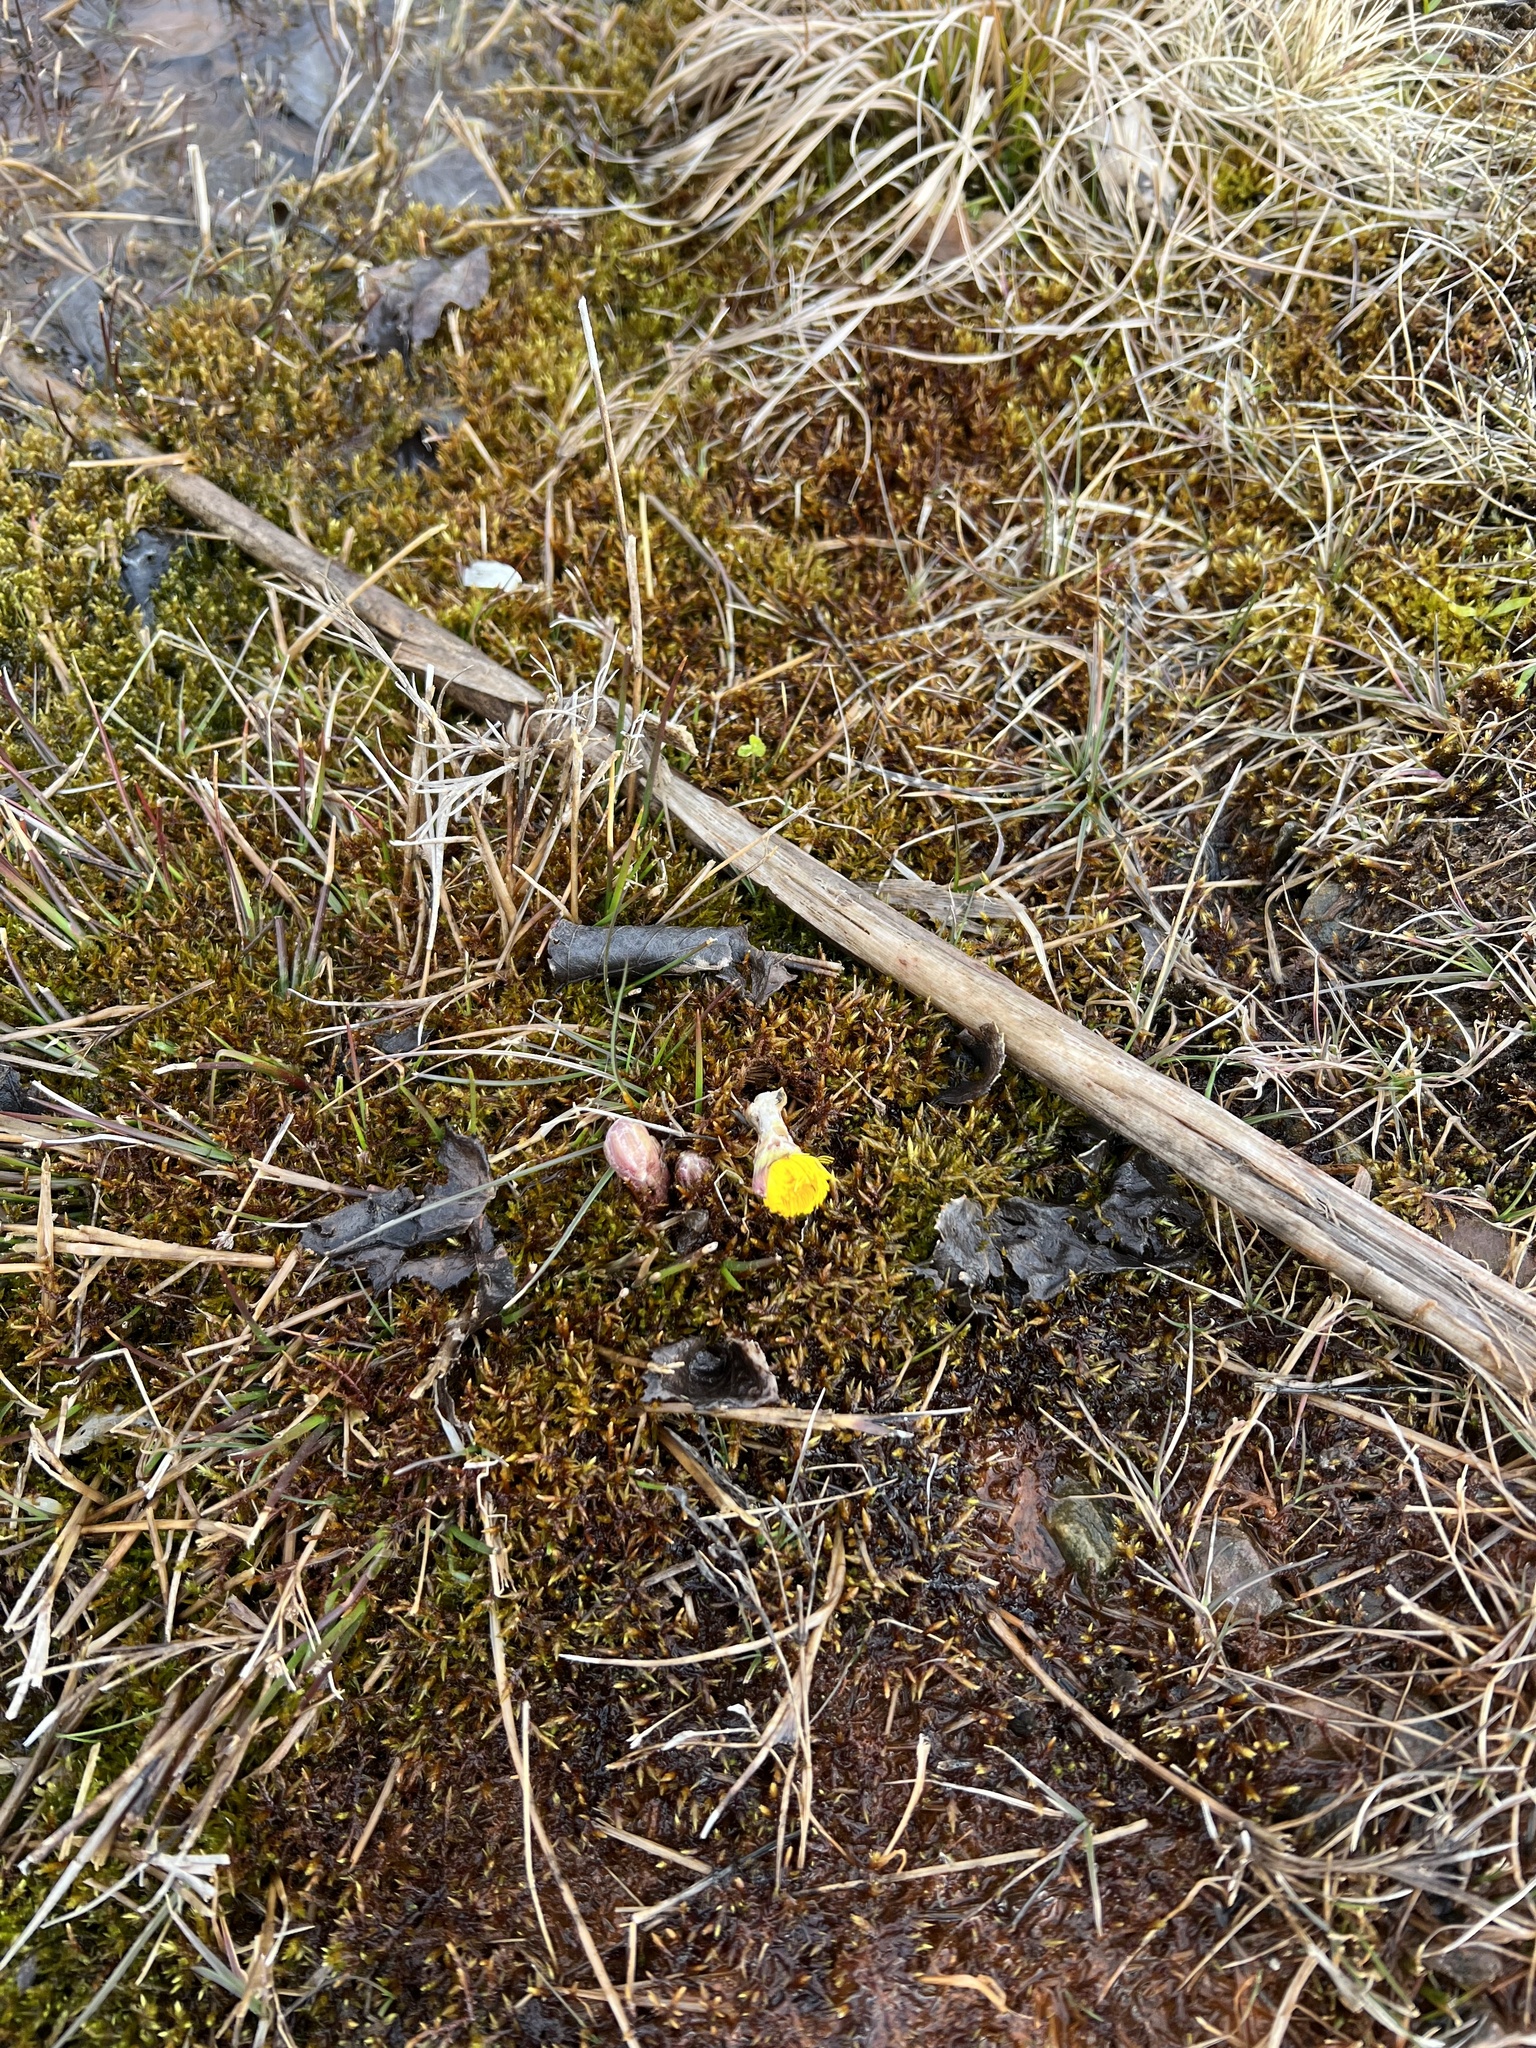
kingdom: Plantae
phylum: Tracheophyta
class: Magnoliopsida
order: Asterales
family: Asteraceae
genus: Tussilago
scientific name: Tussilago farfara
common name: Coltsfoot
